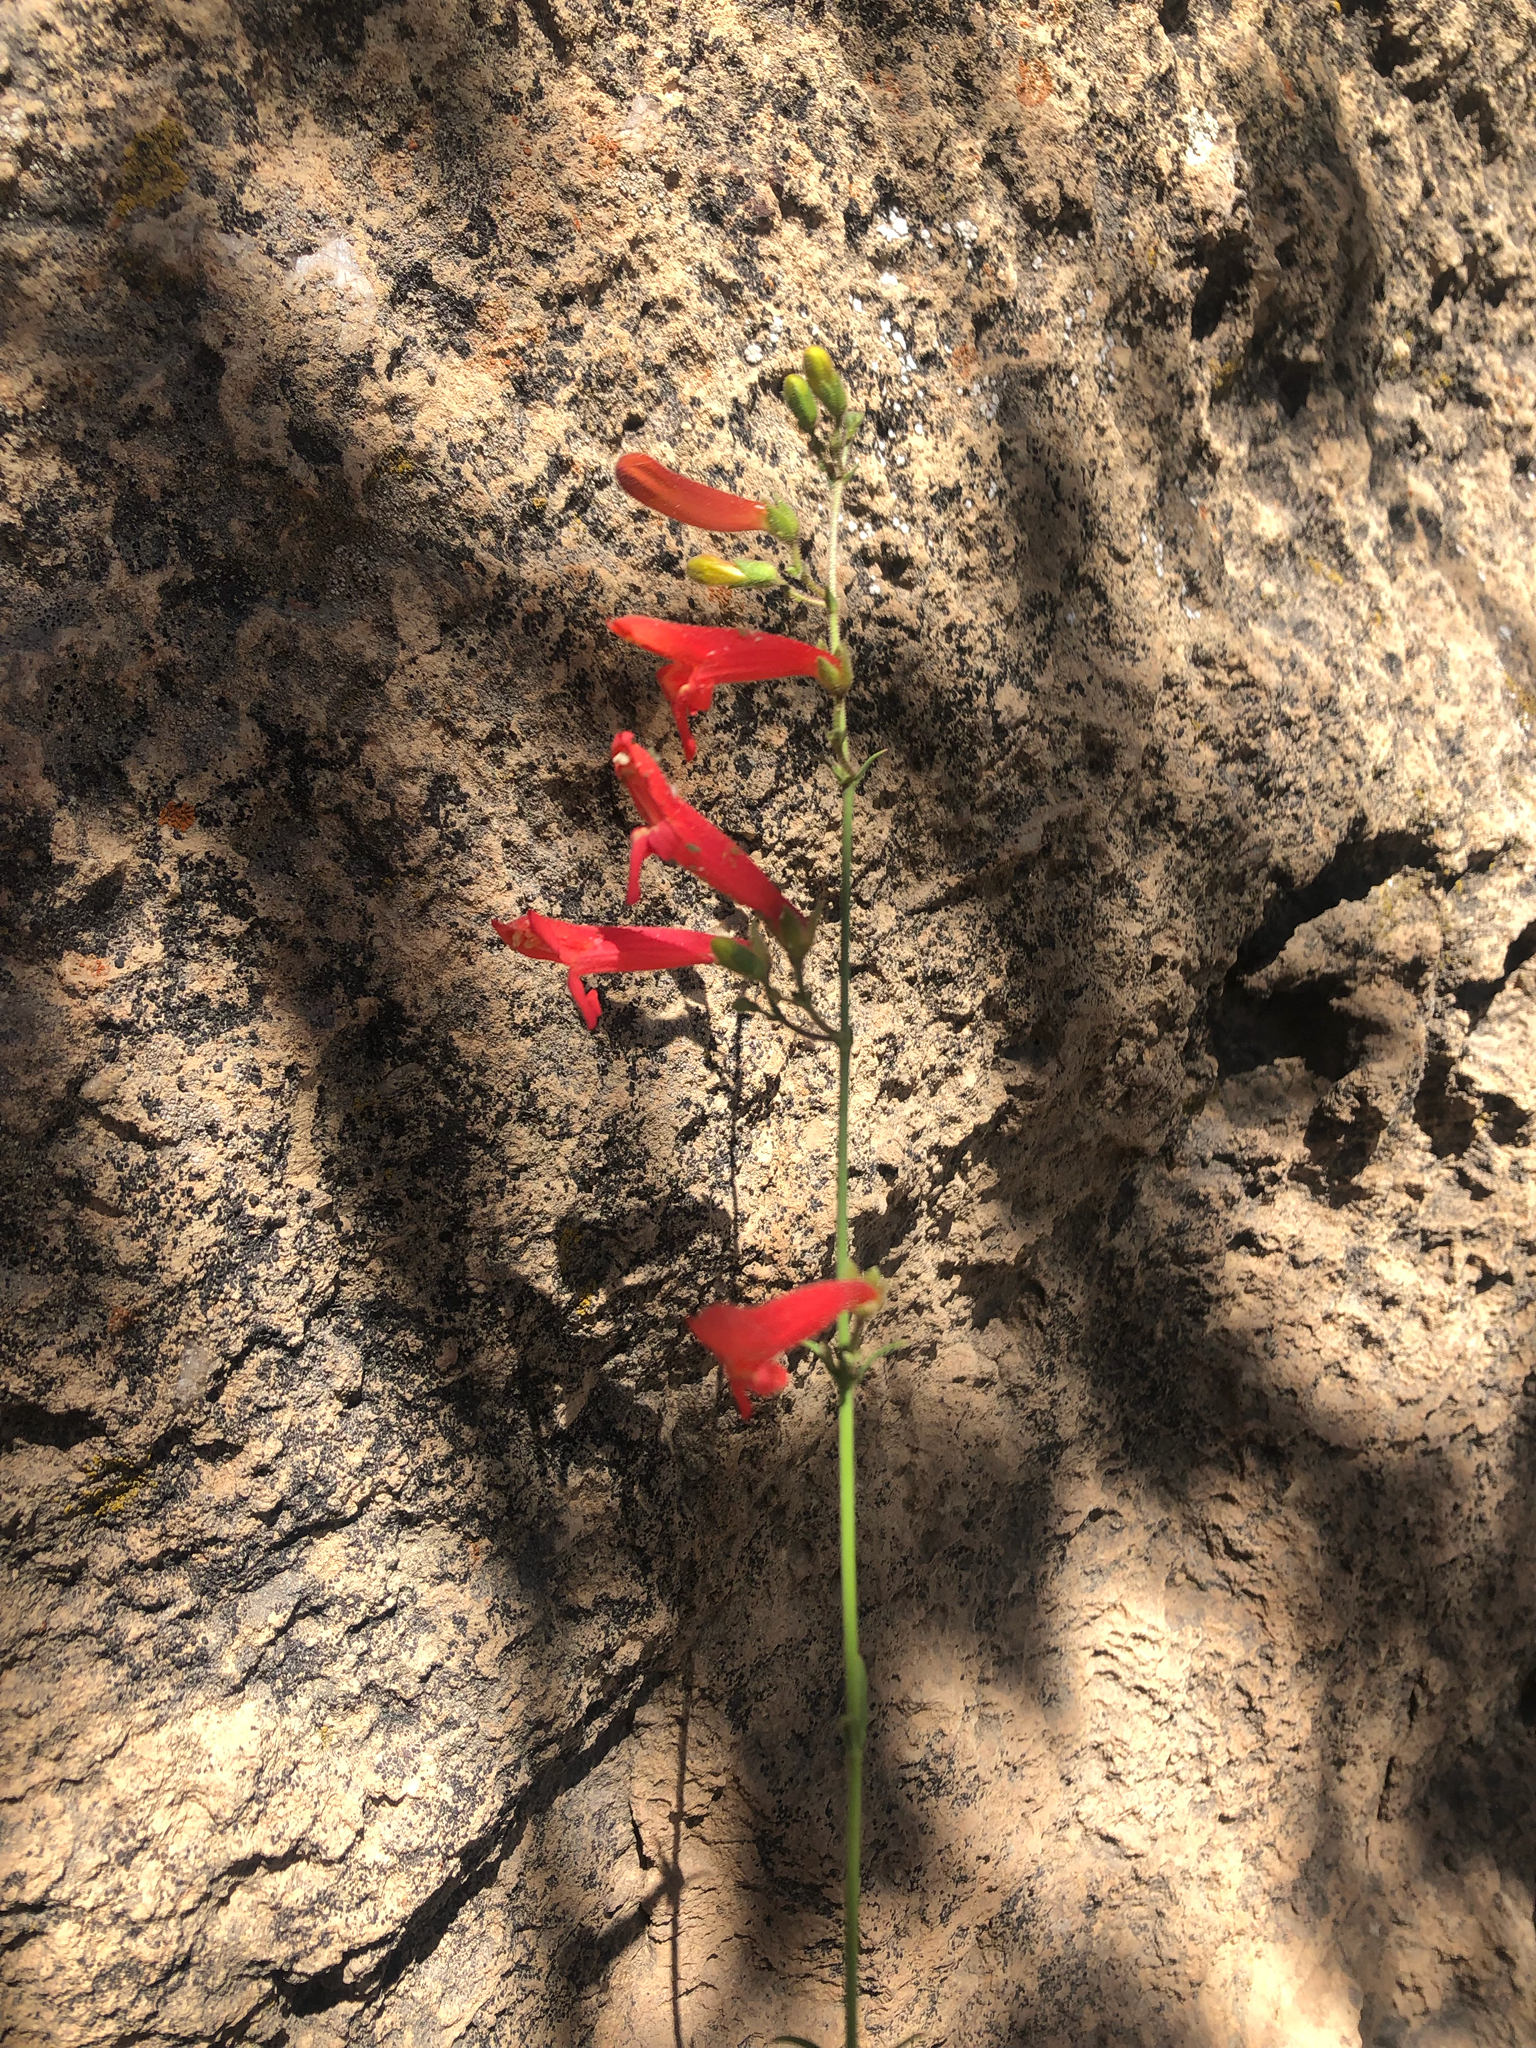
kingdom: Plantae
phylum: Tracheophyta
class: Magnoliopsida
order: Lamiales
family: Plantaginaceae
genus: Penstemon
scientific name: Penstemon barbatus
